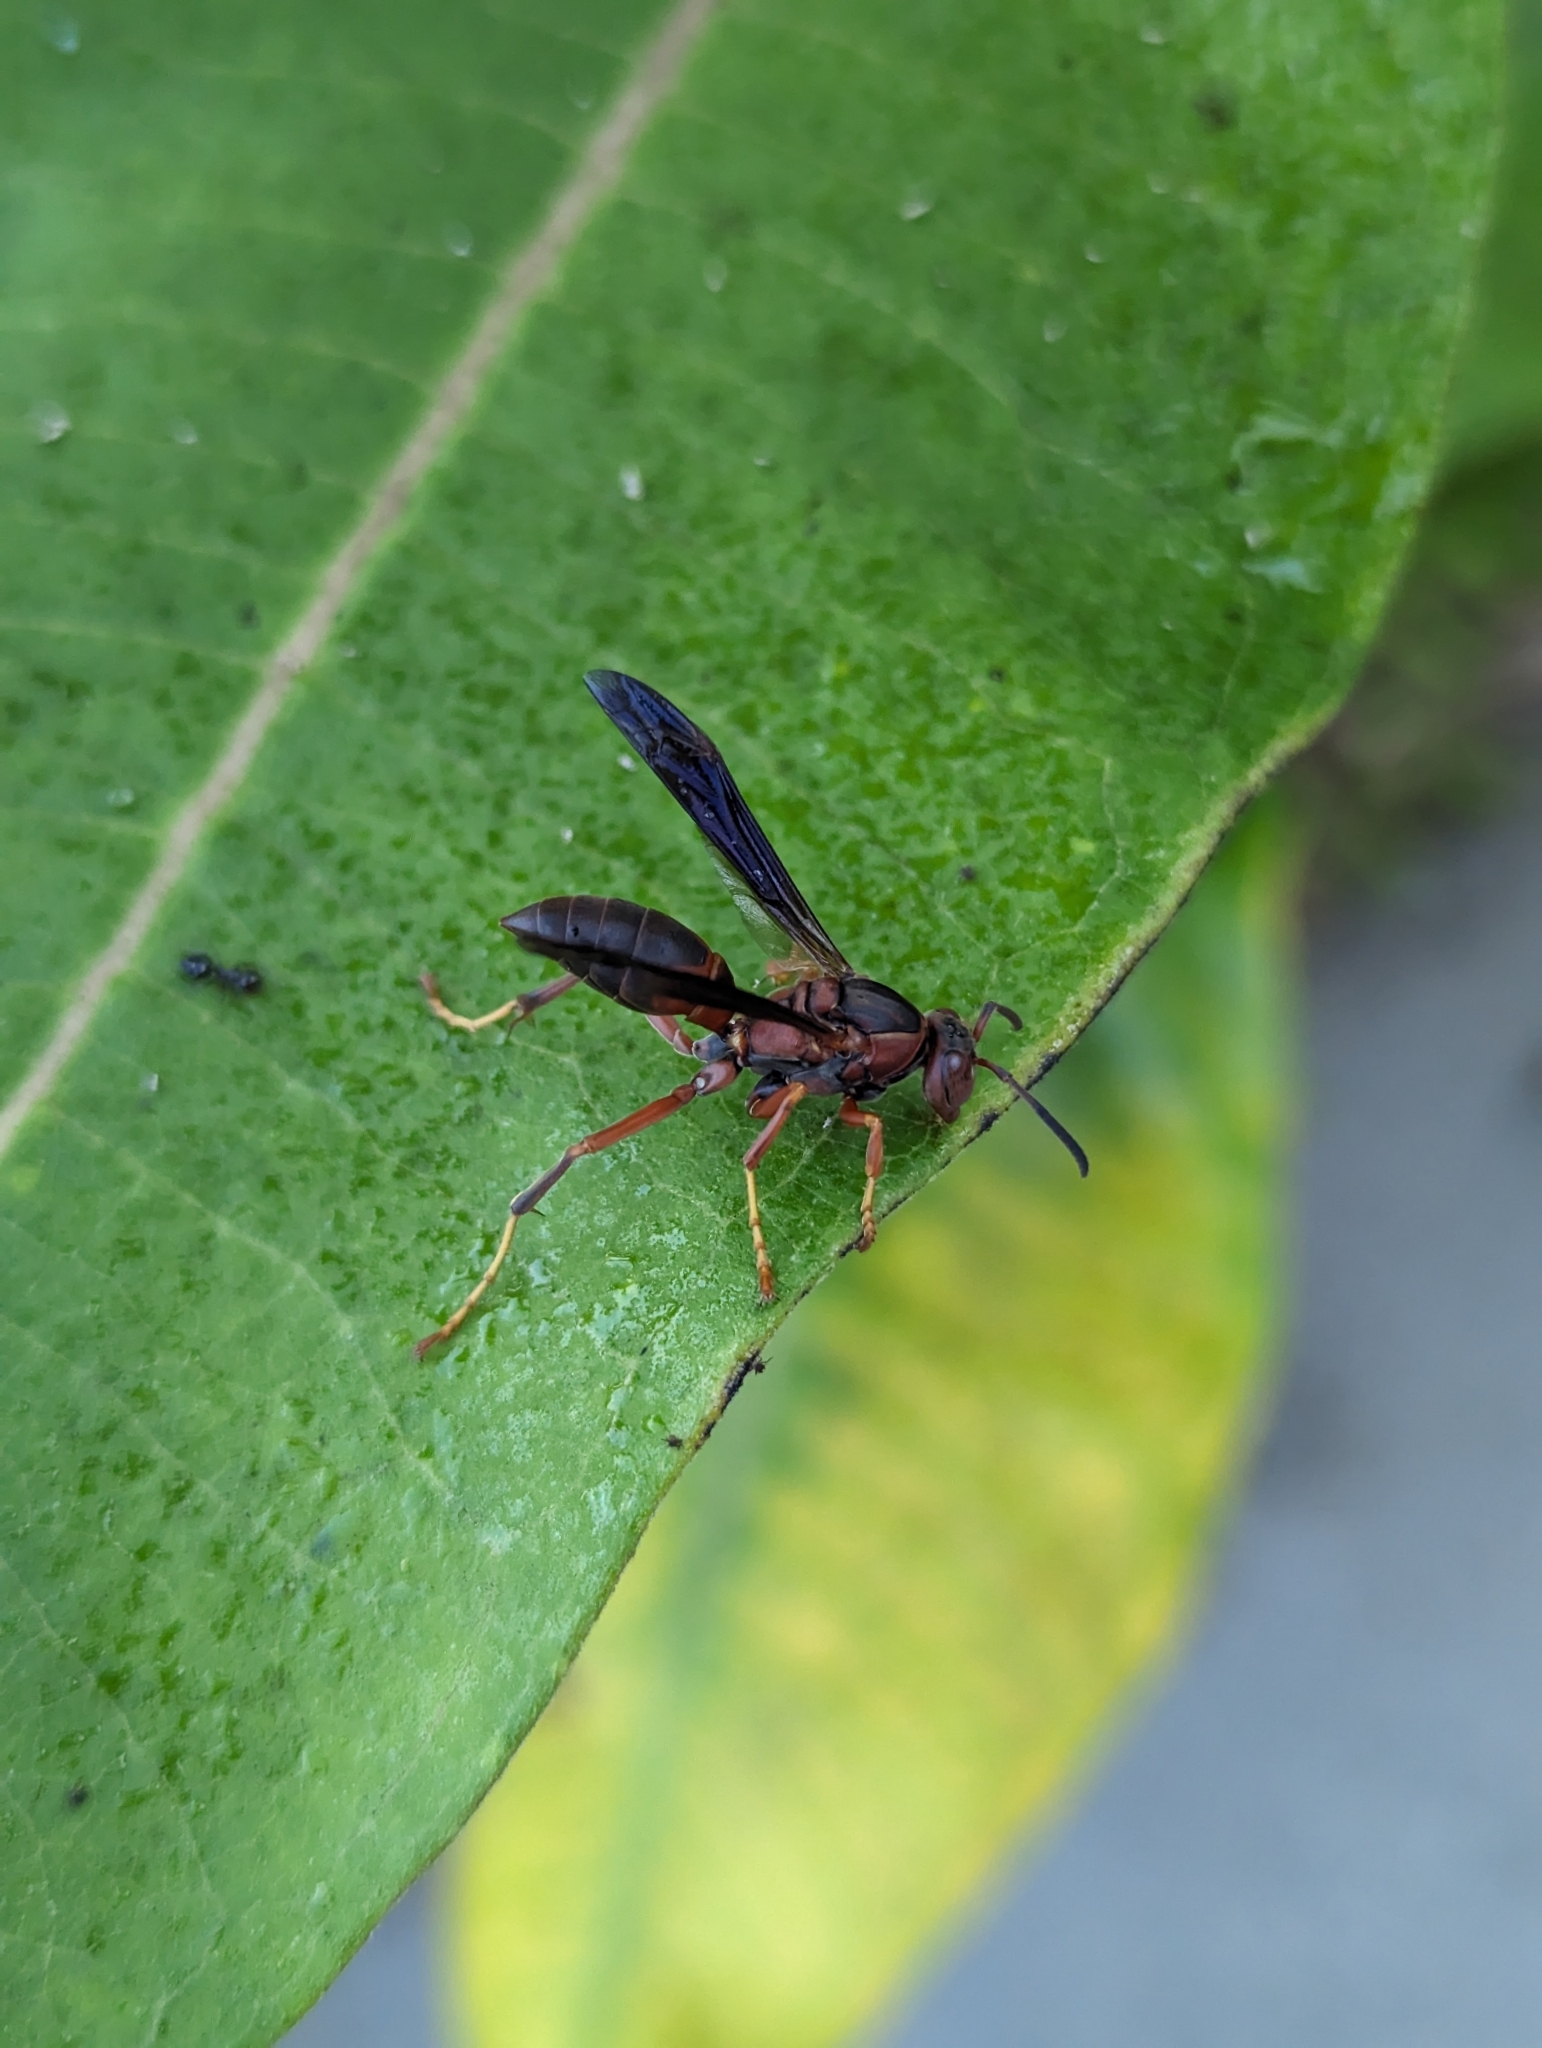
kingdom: Animalia
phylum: Arthropoda
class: Insecta
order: Hymenoptera
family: Eumenidae
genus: Polistes
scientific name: Polistes metricus
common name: Metric paper wasp
